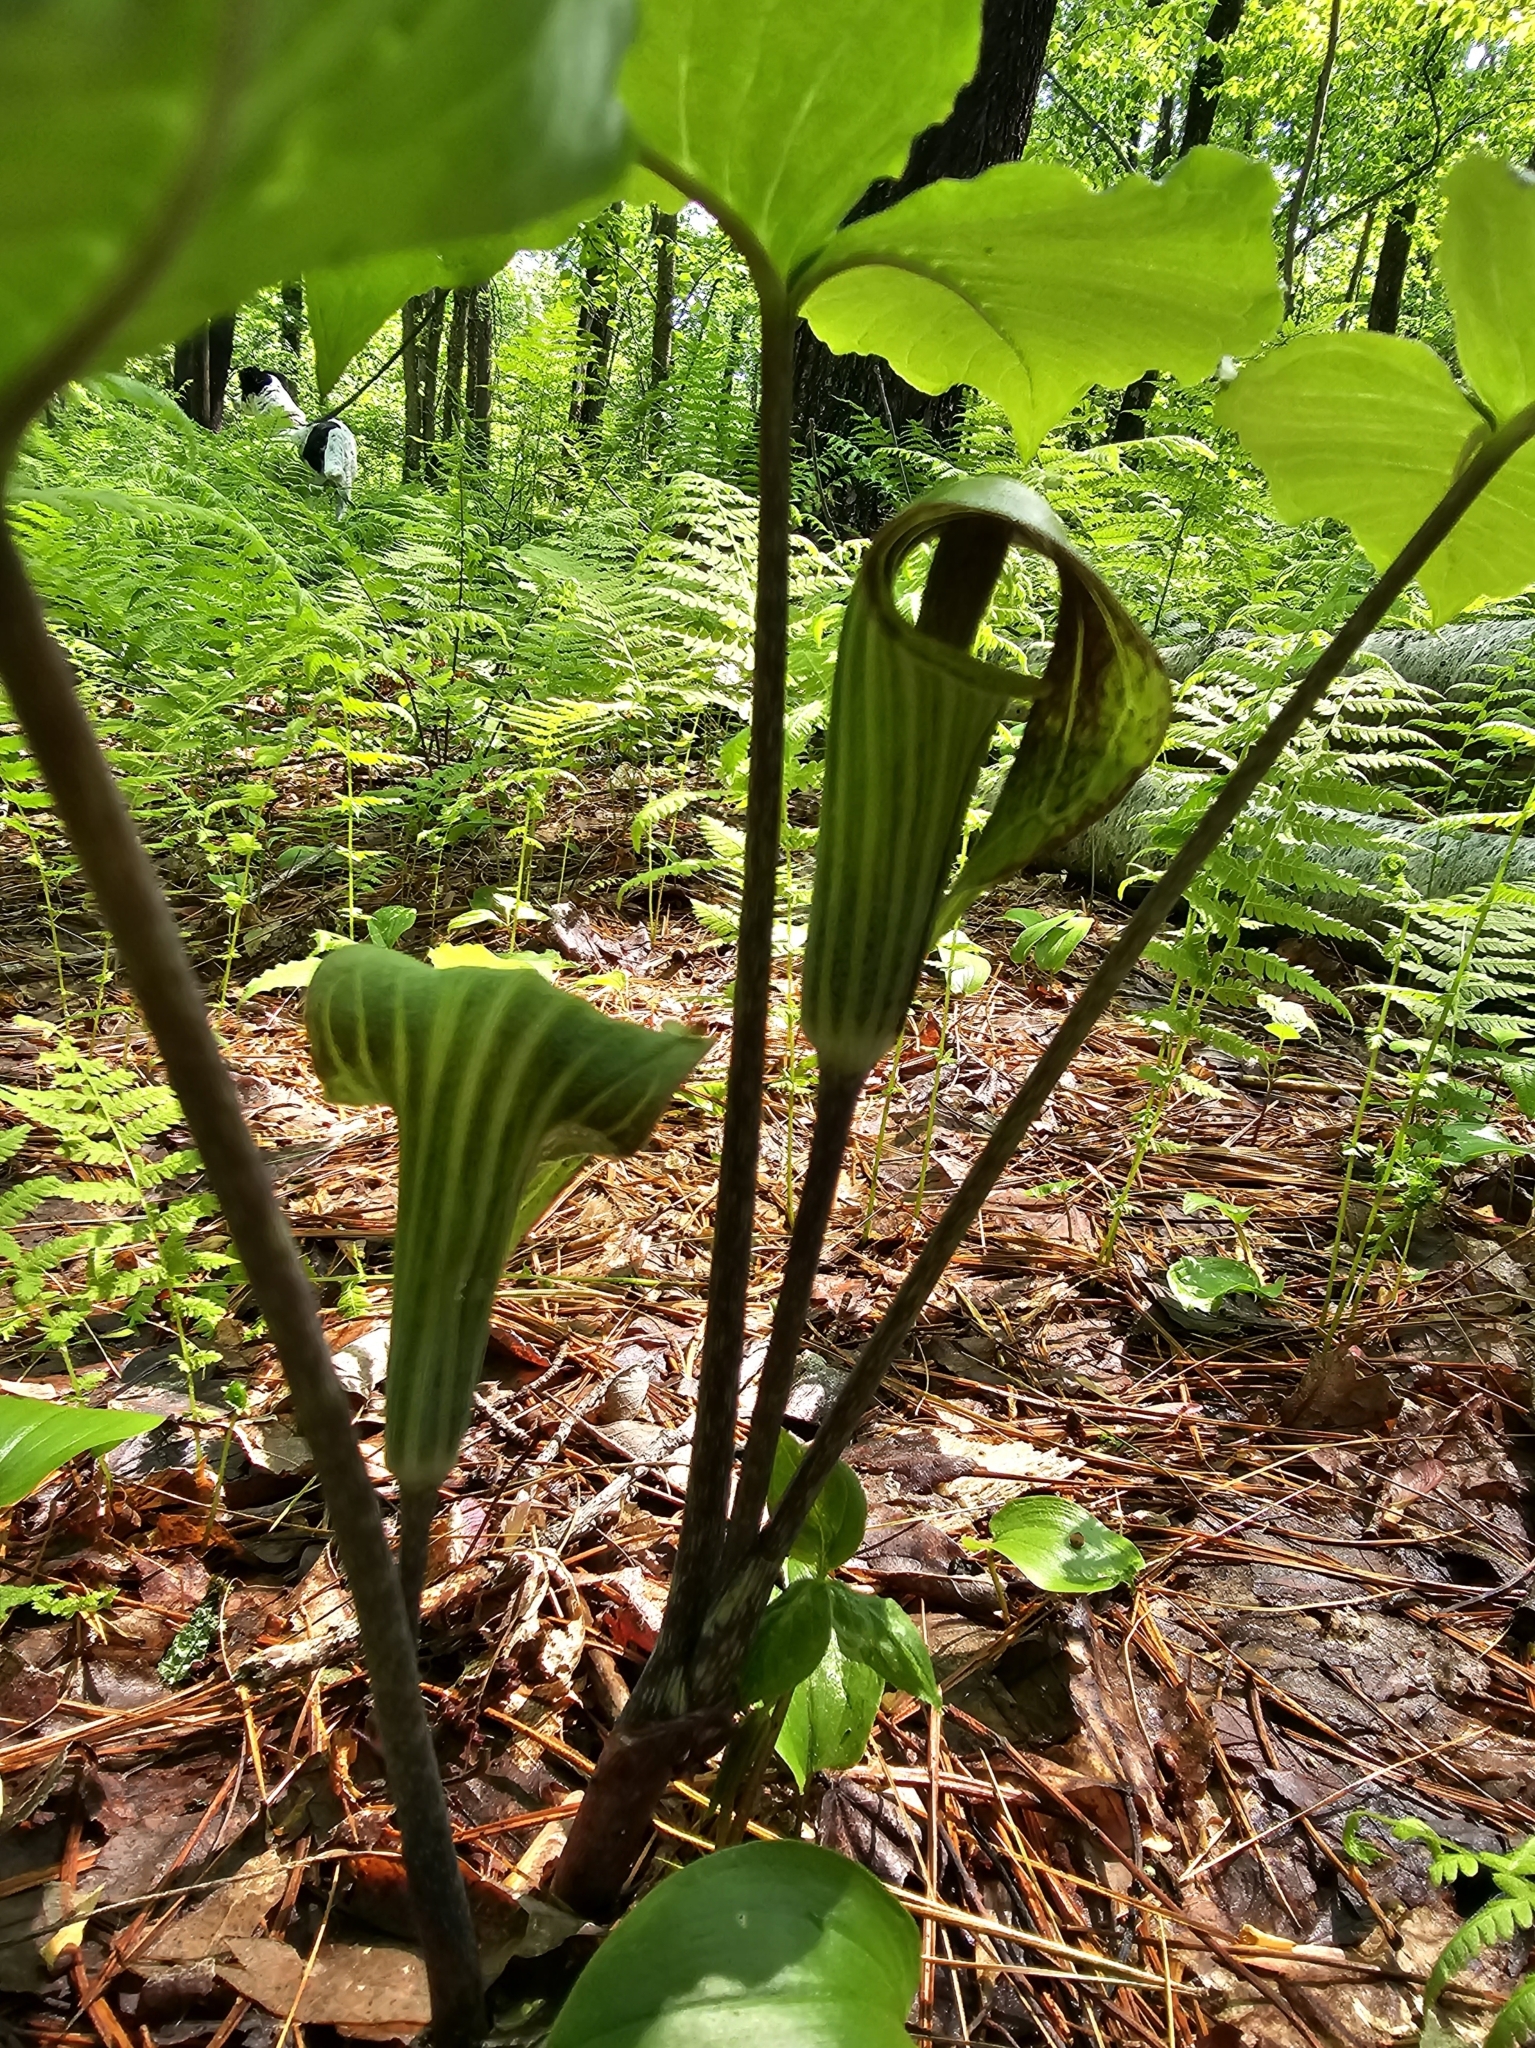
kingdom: Plantae
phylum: Tracheophyta
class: Liliopsida
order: Alismatales
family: Araceae
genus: Arisaema
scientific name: Arisaema triphyllum
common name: Jack-in-the-pulpit
